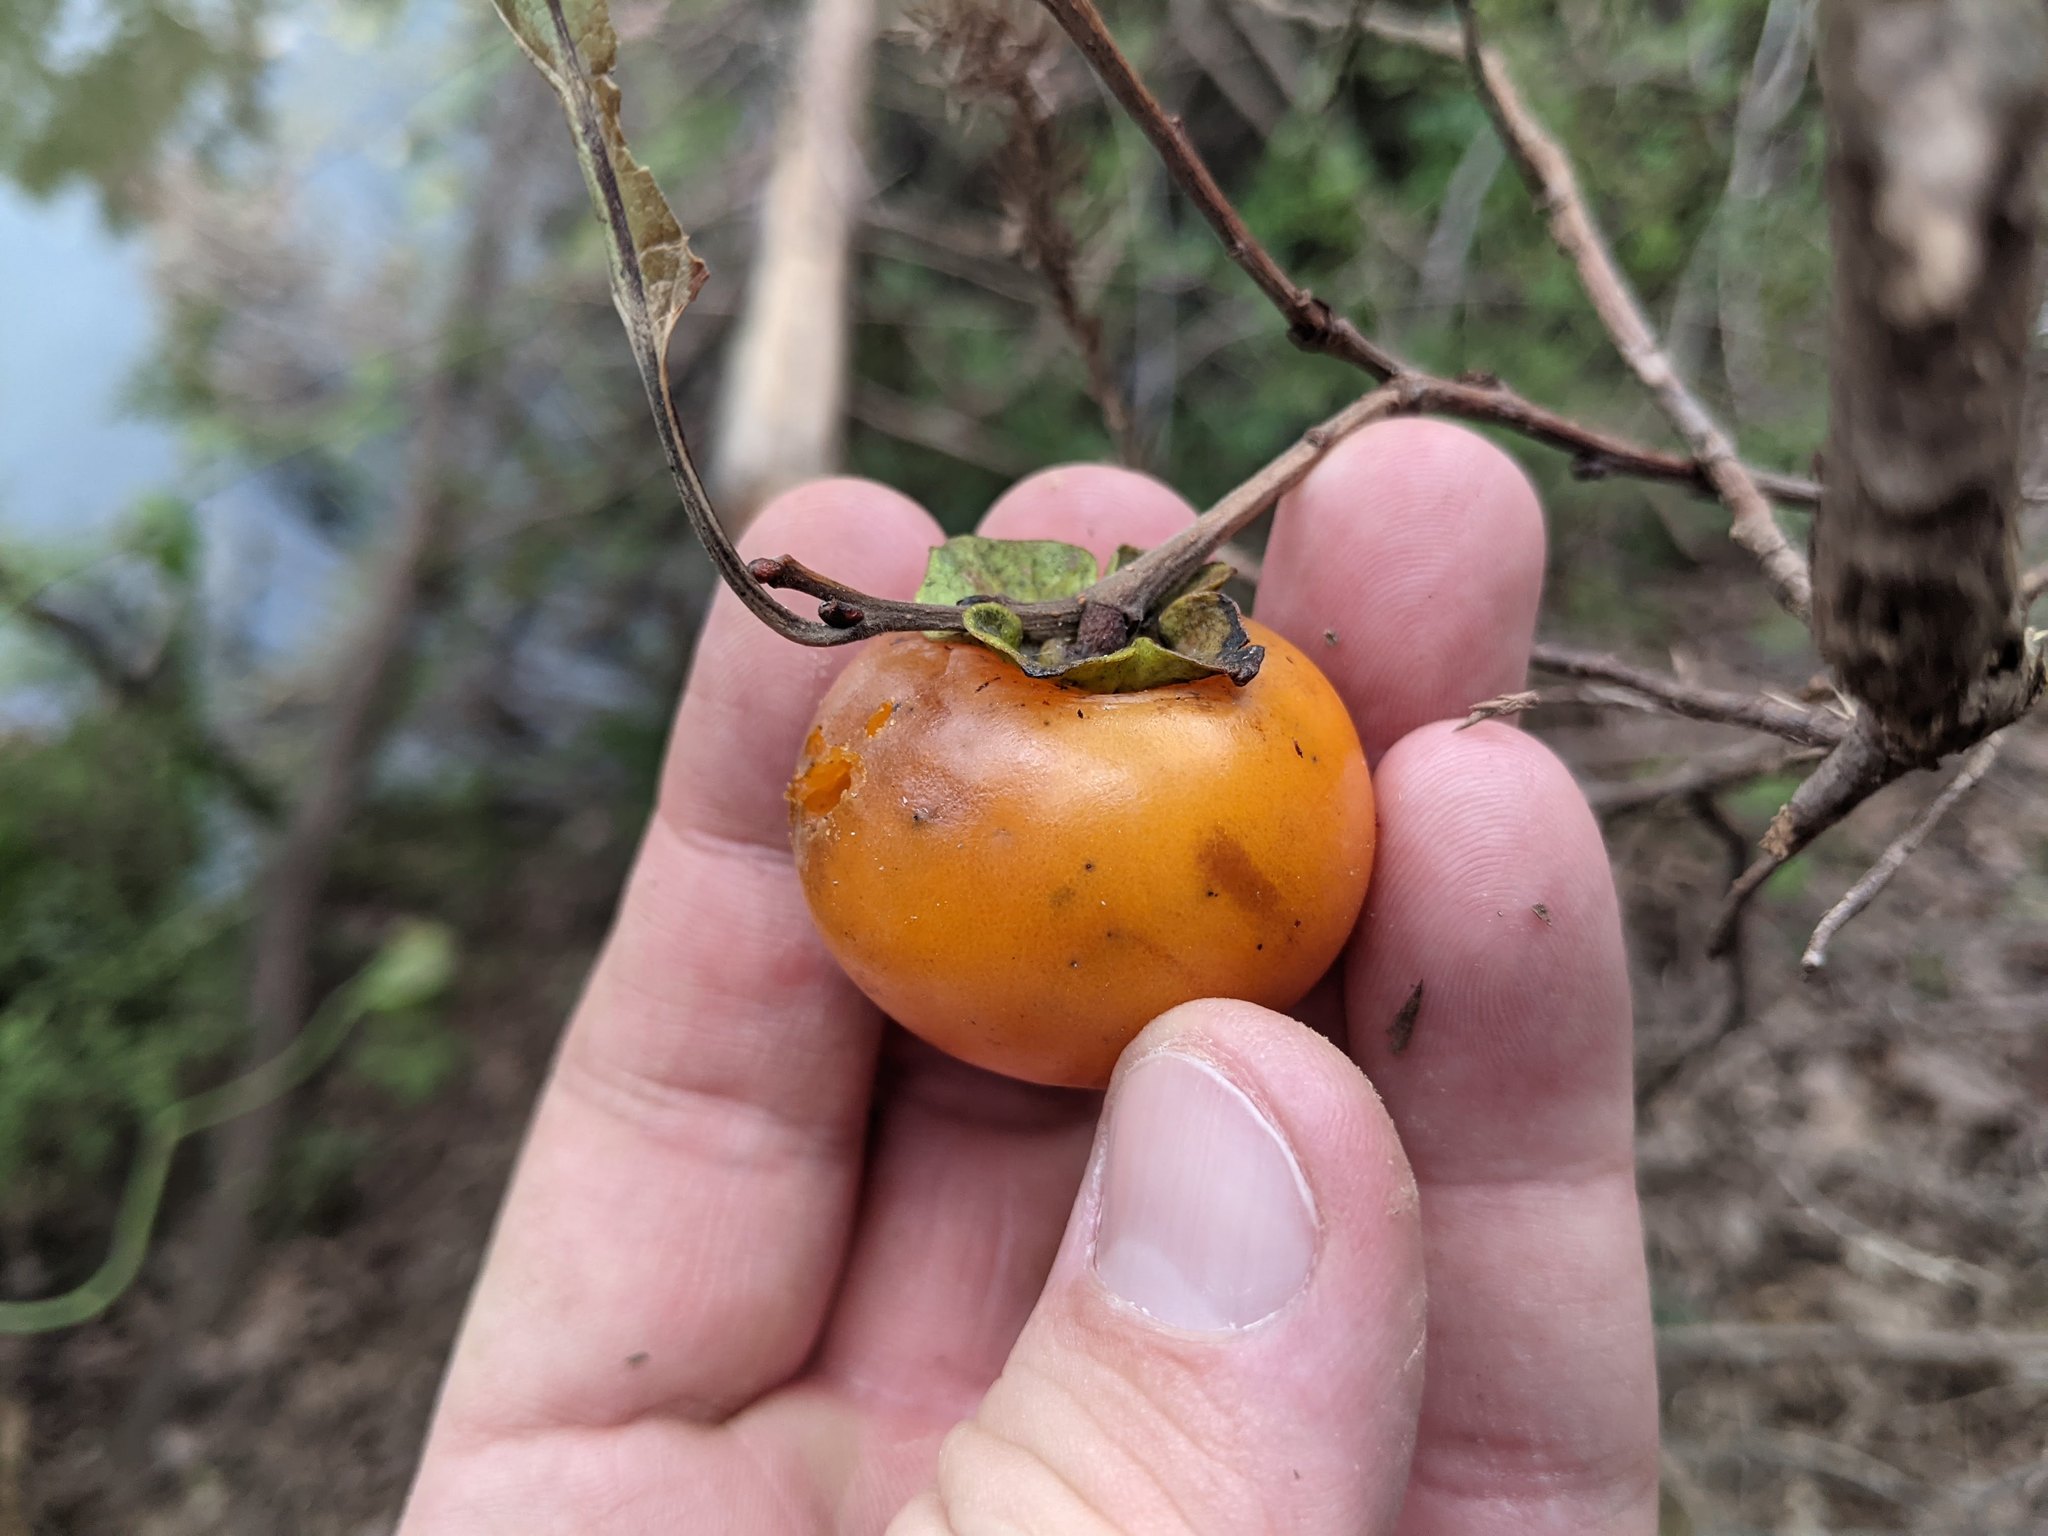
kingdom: Plantae
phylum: Tracheophyta
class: Magnoliopsida
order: Ericales
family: Ebenaceae
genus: Diospyros
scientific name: Diospyros virginiana
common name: Persimmon
